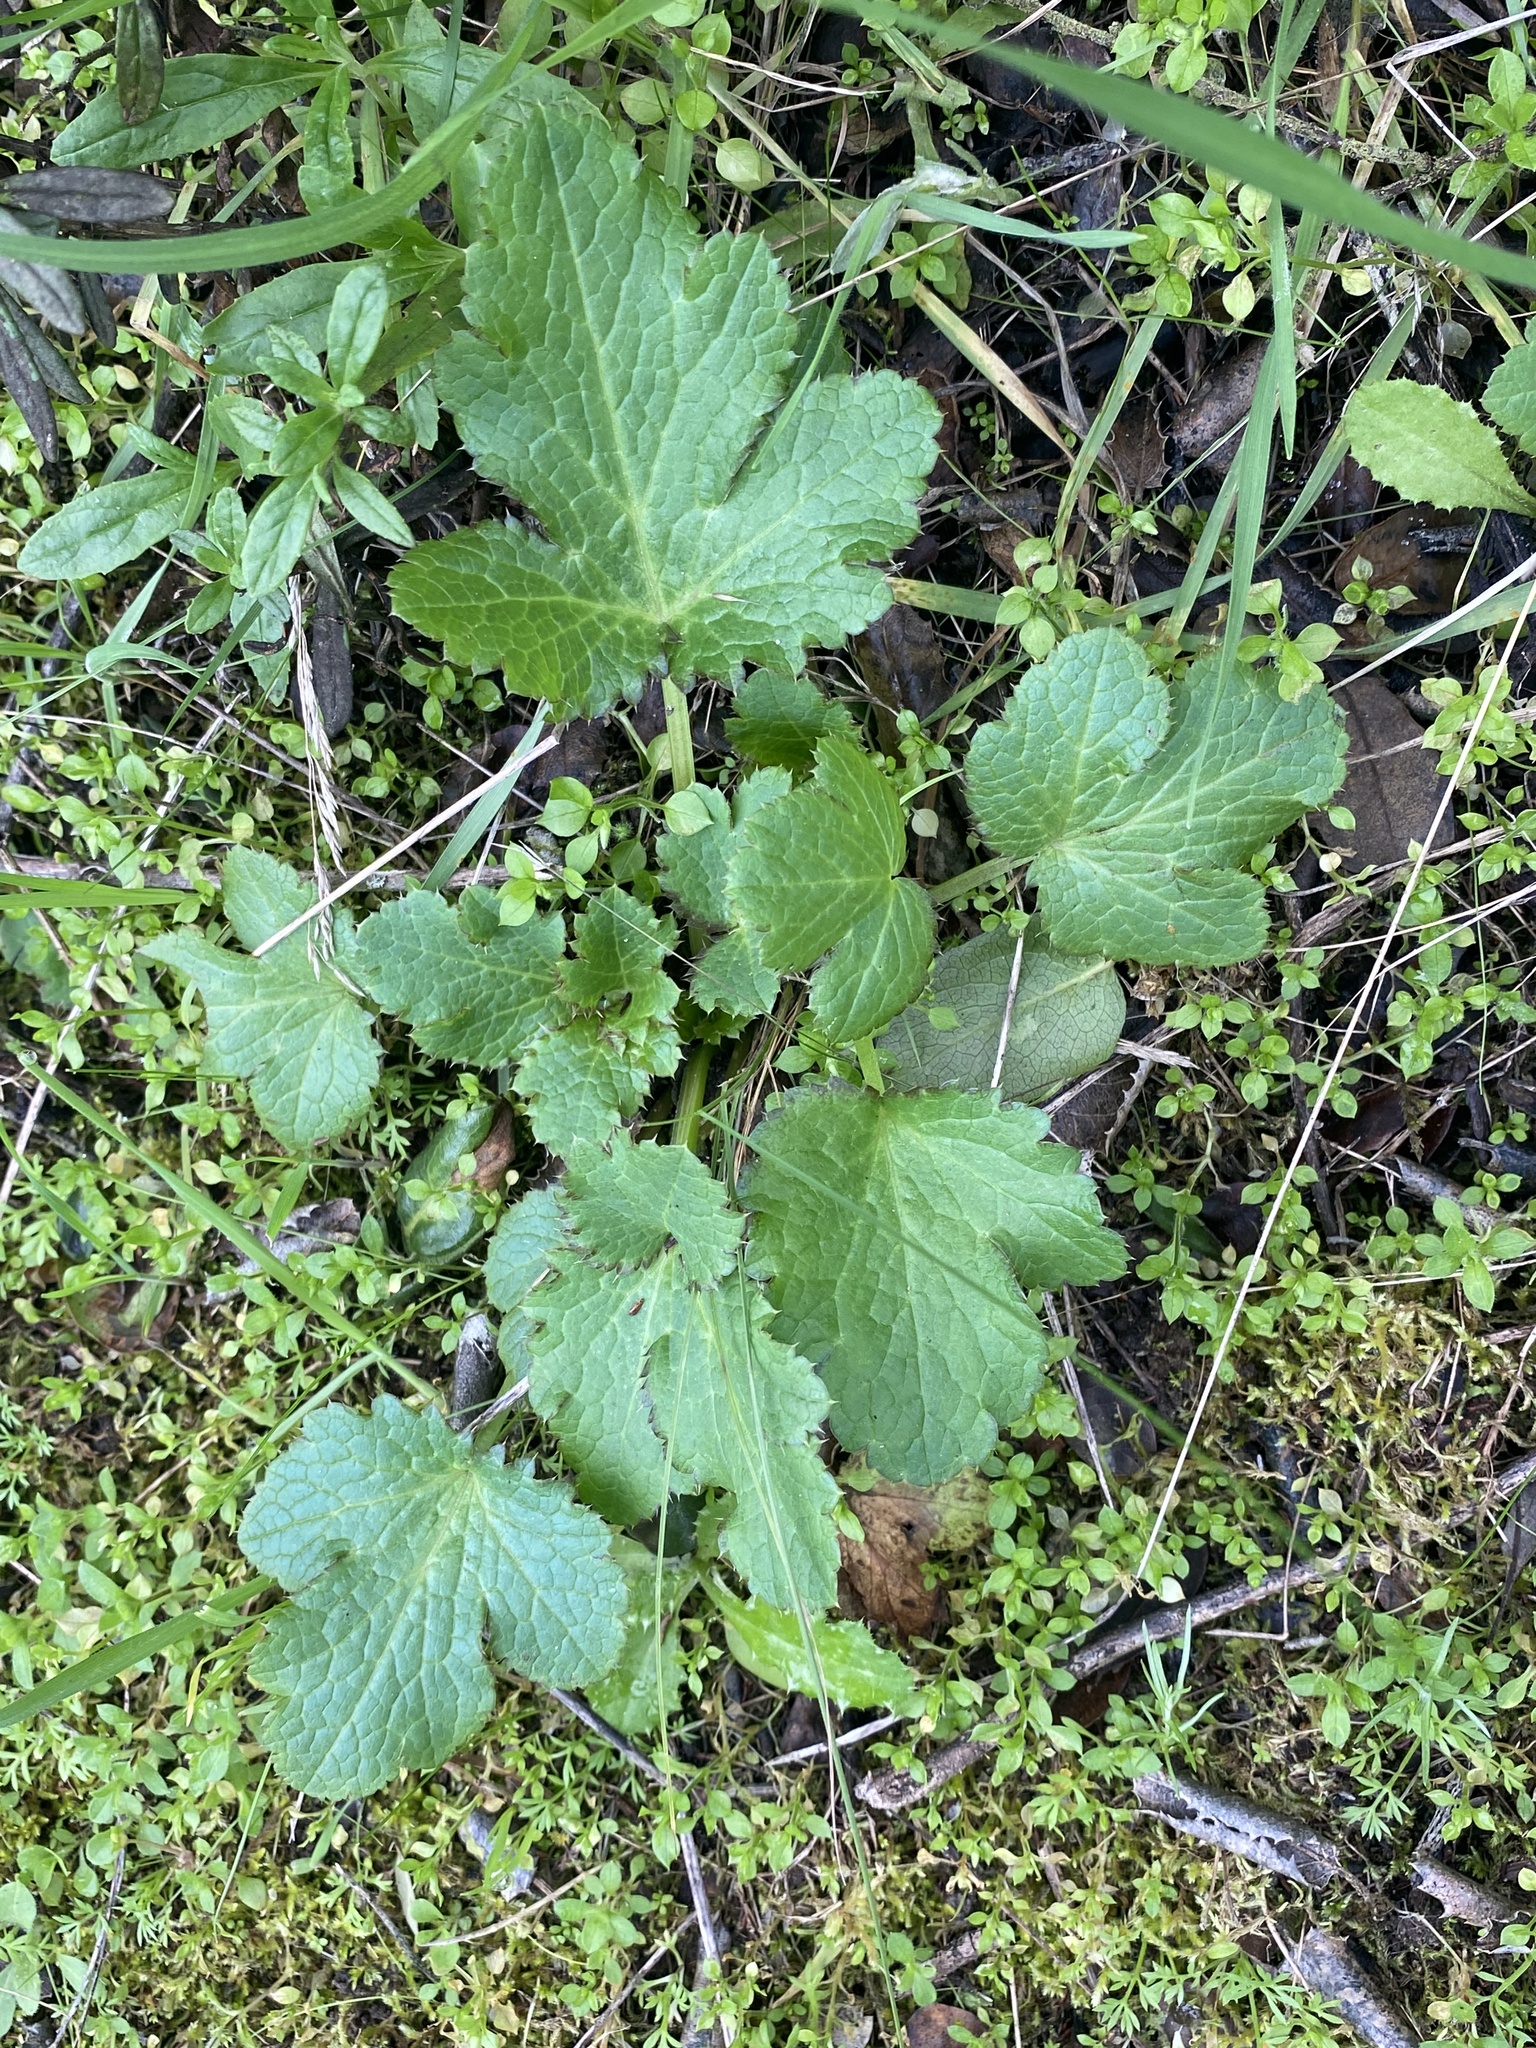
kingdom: Plantae
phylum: Tracheophyta
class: Magnoliopsida
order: Apiales
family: Apiaceae
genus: Sanicula
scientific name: Sanicula crassicaulis
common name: Western snakeroot
